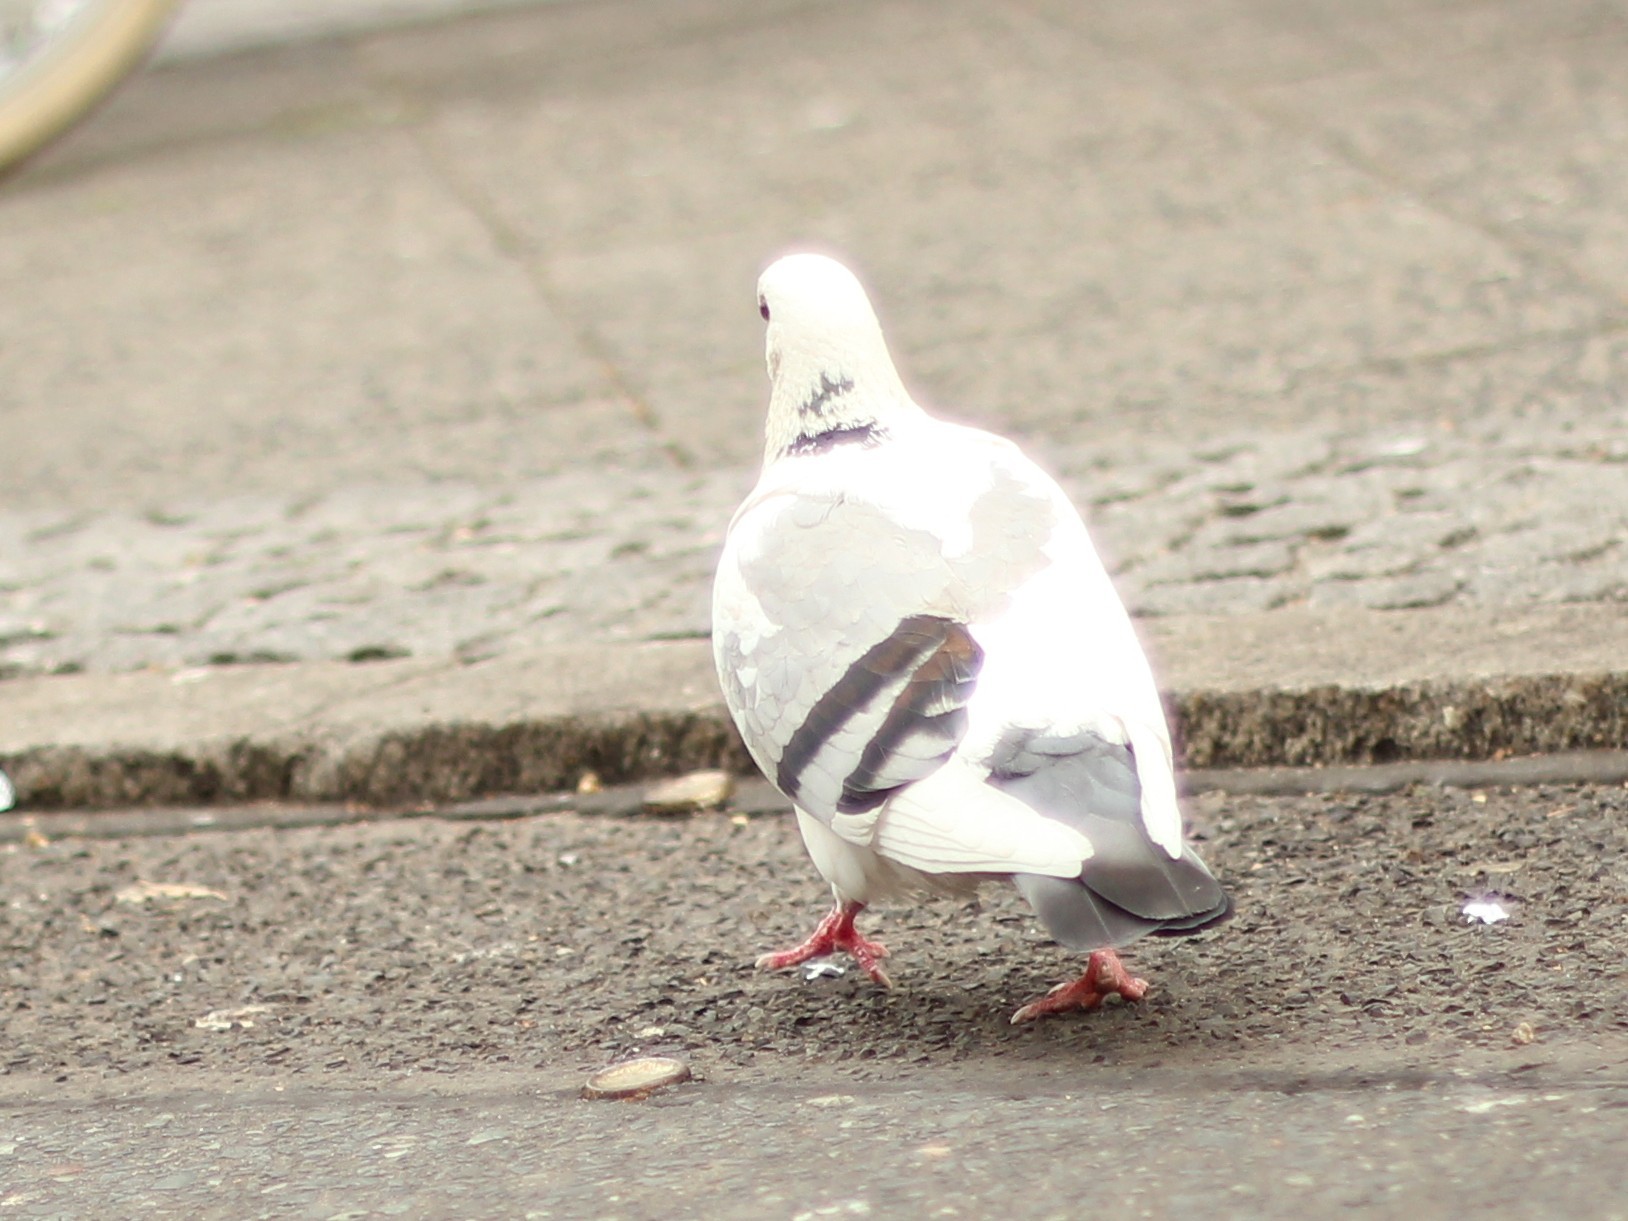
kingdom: Animalia
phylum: Chordata
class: Aves
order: Columbiformes
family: Columbidae
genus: Columba
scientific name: Columba livia
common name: Rock pigeon
